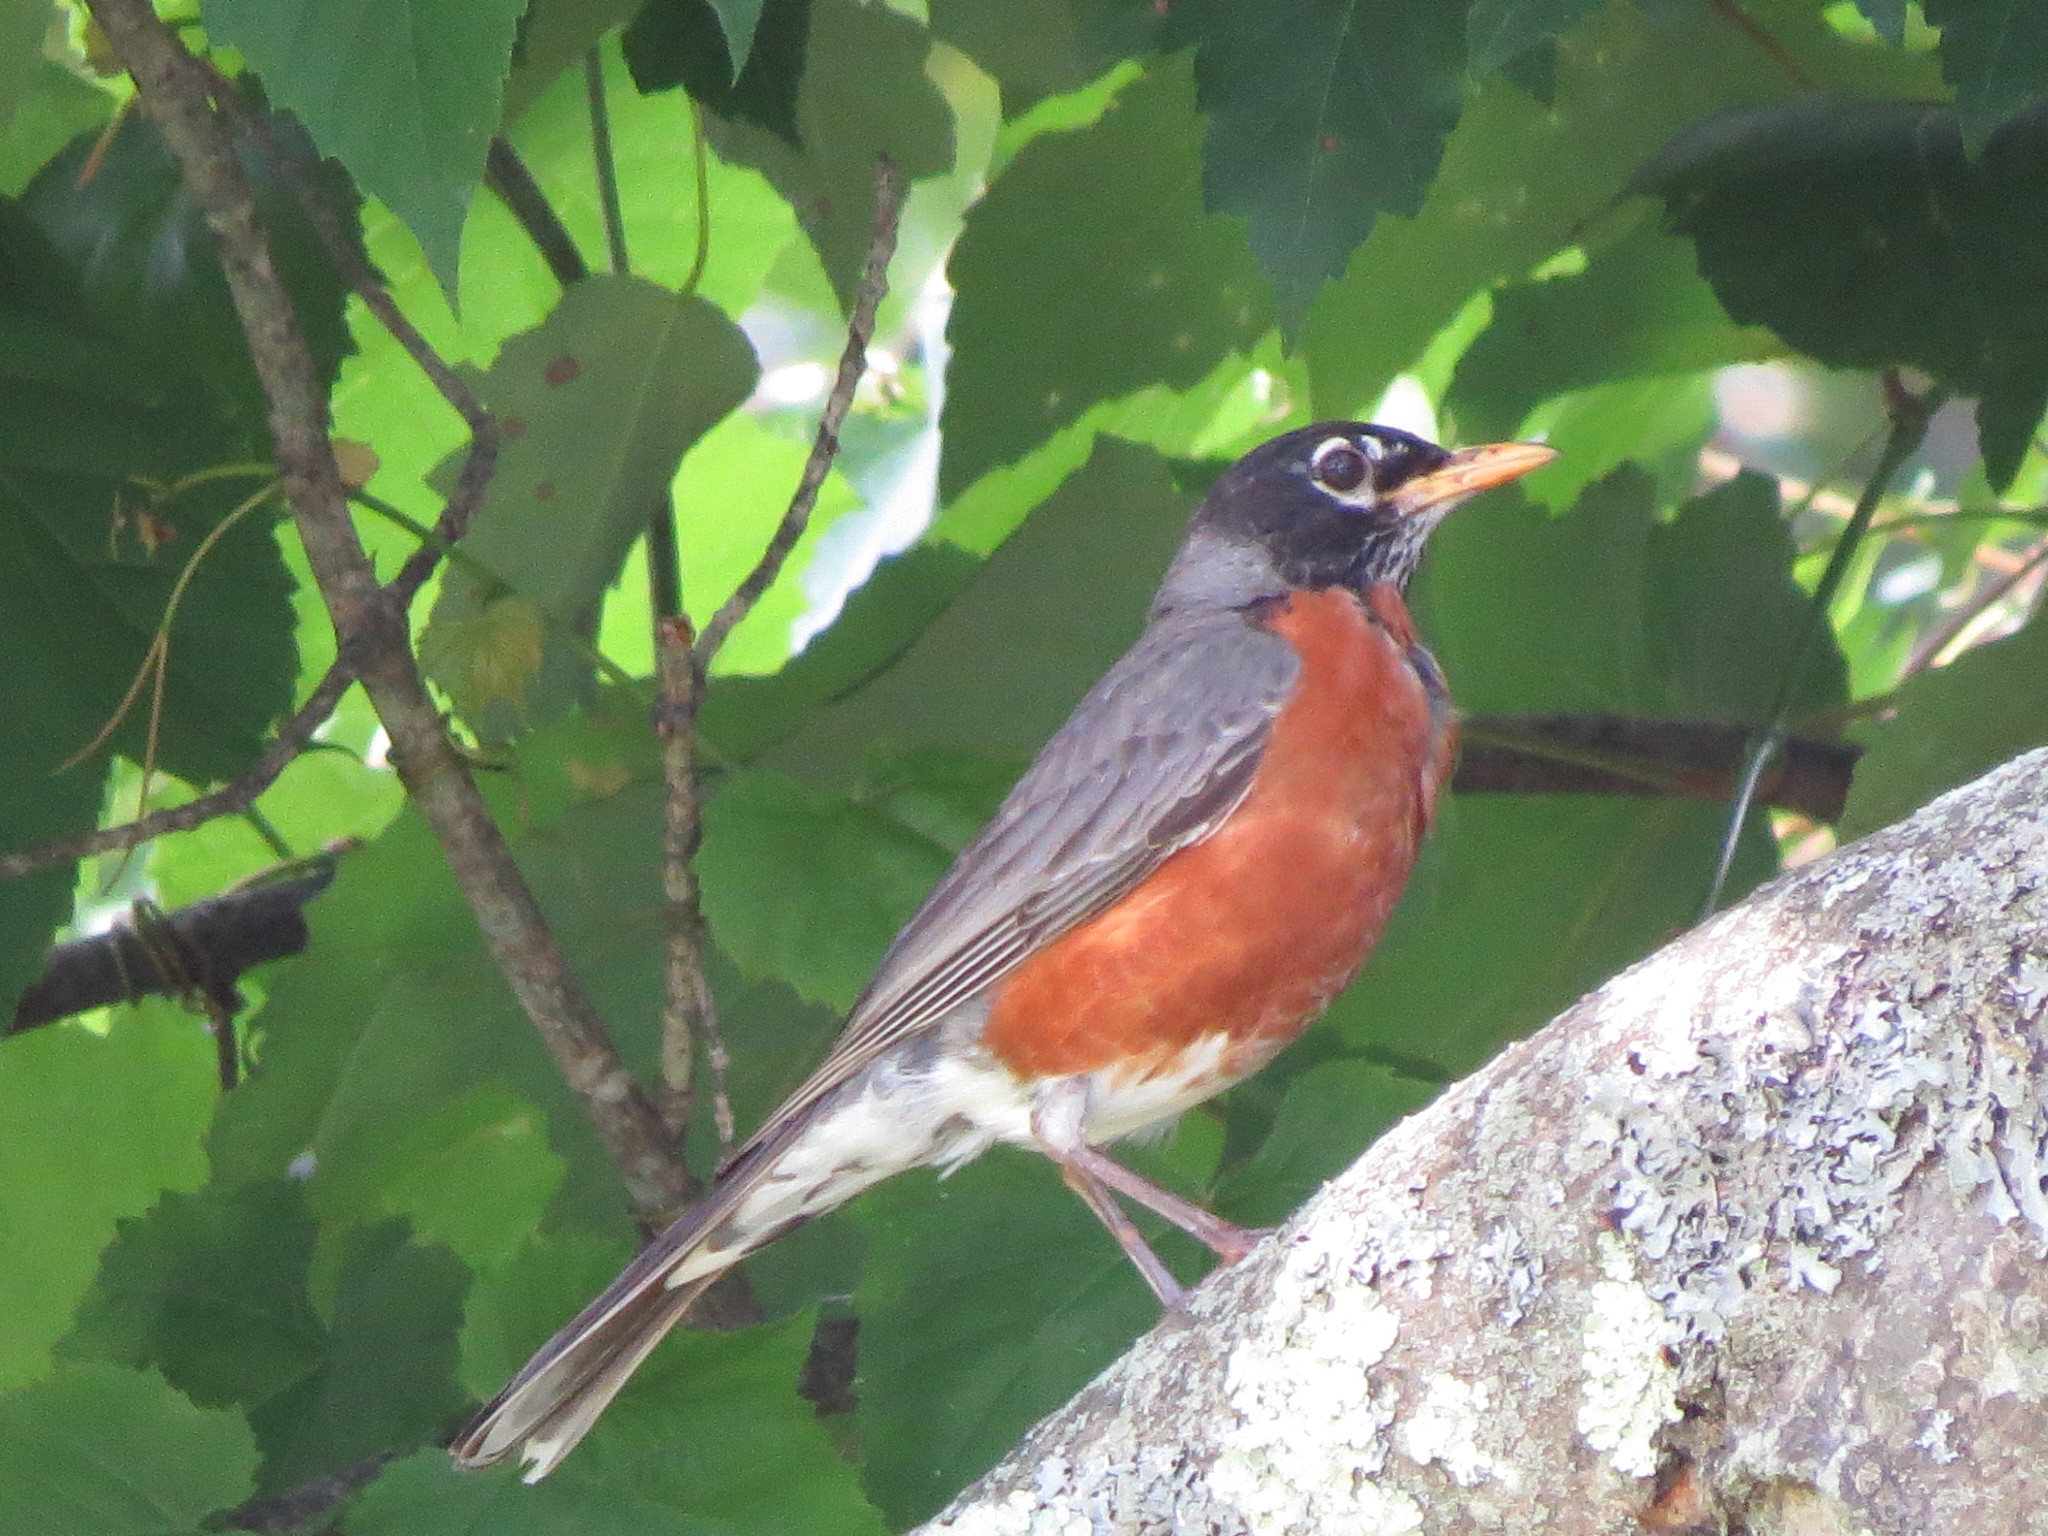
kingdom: Animalia
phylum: Chordata
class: Aves
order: Passeriformes
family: Turdidae
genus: Turdus
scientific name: Turdus migratorius
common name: American robin
